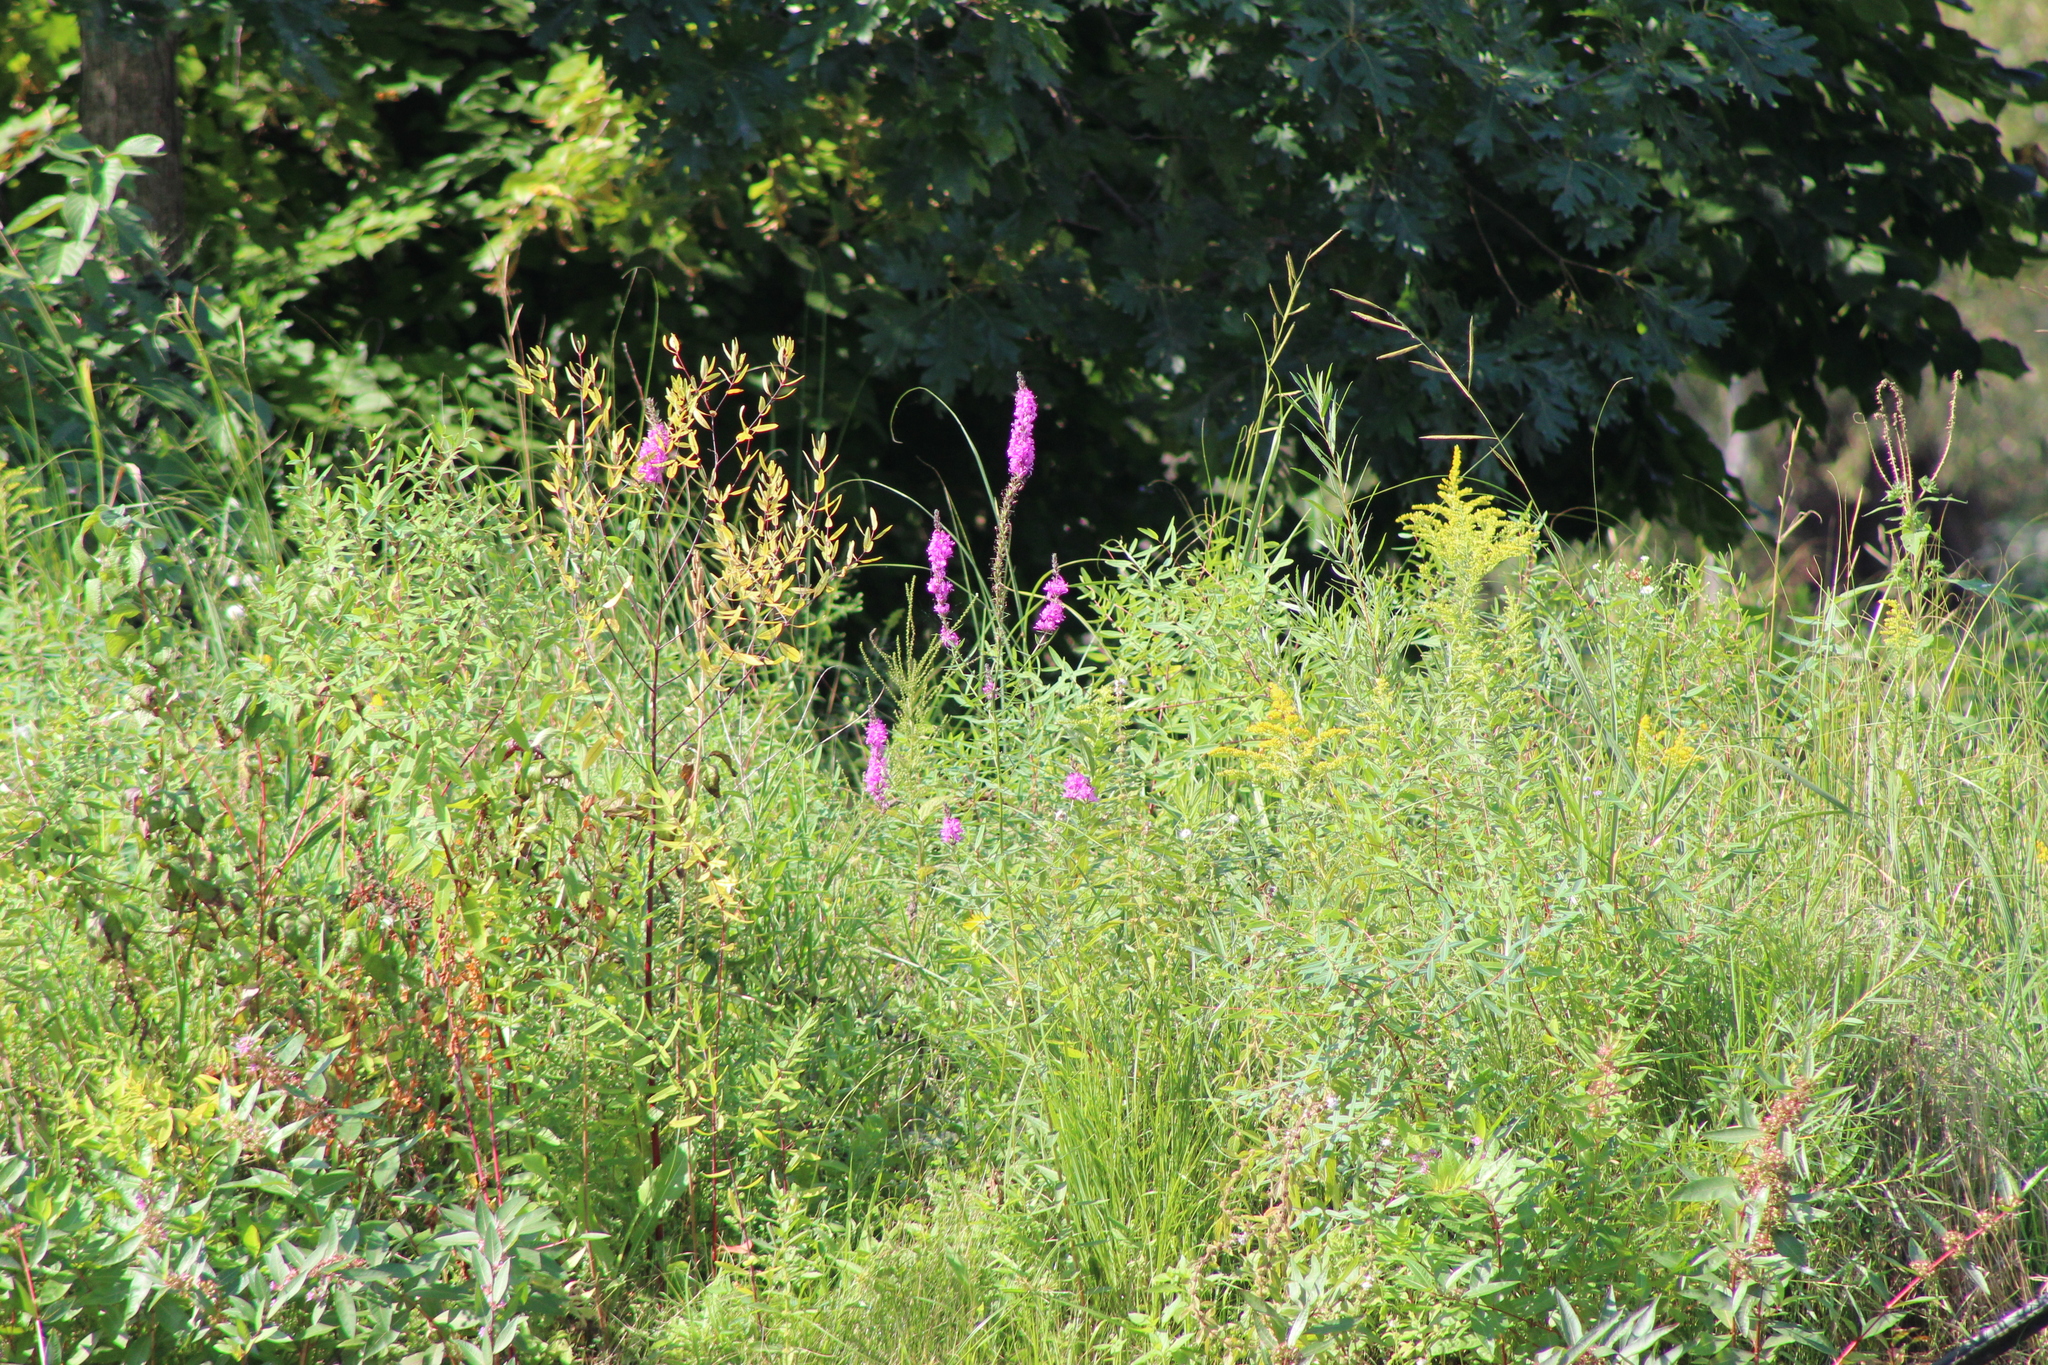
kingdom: Plantae
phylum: Tracheophyta
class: Magnoliopsida
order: Myrtales
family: Lythraceae
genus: Lythrum
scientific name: Lythrum salicaria
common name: Purple loosestrife
